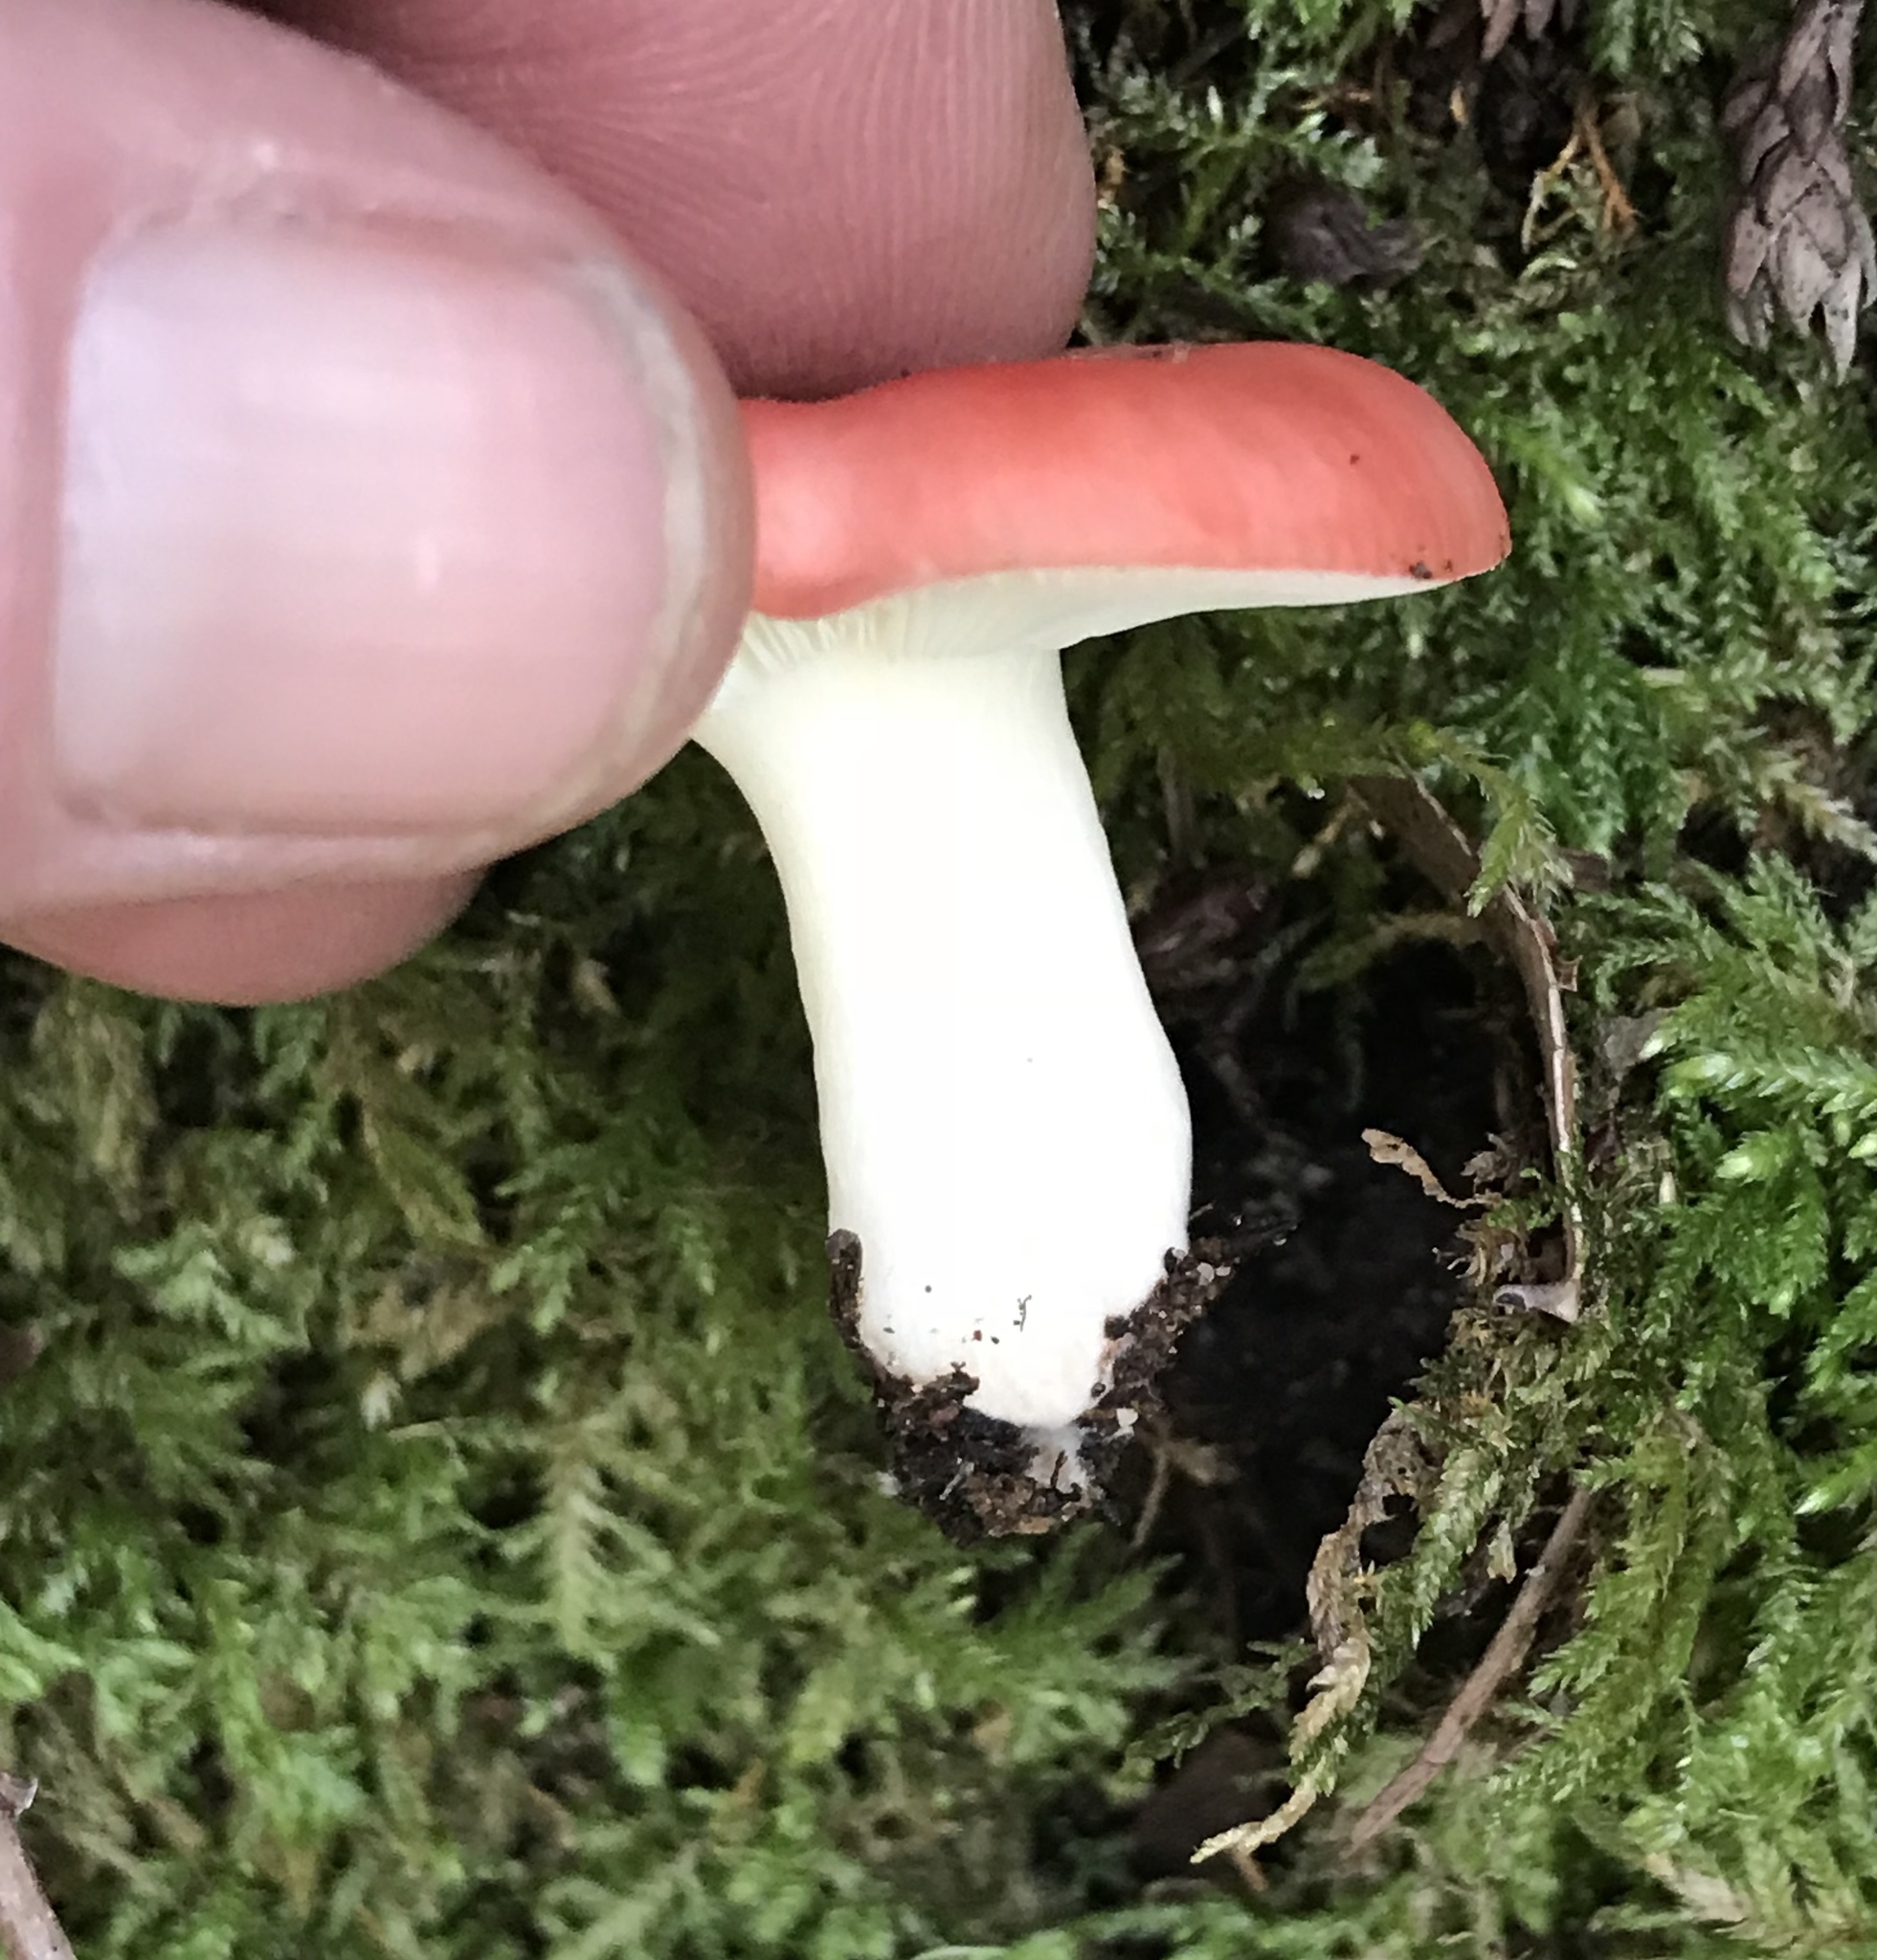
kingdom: Fungi
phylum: Basidiomycota
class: Agaricomycetes
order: Russulales
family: Russulaceae
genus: Russula
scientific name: Russula cremoricolor
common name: Winter russula
